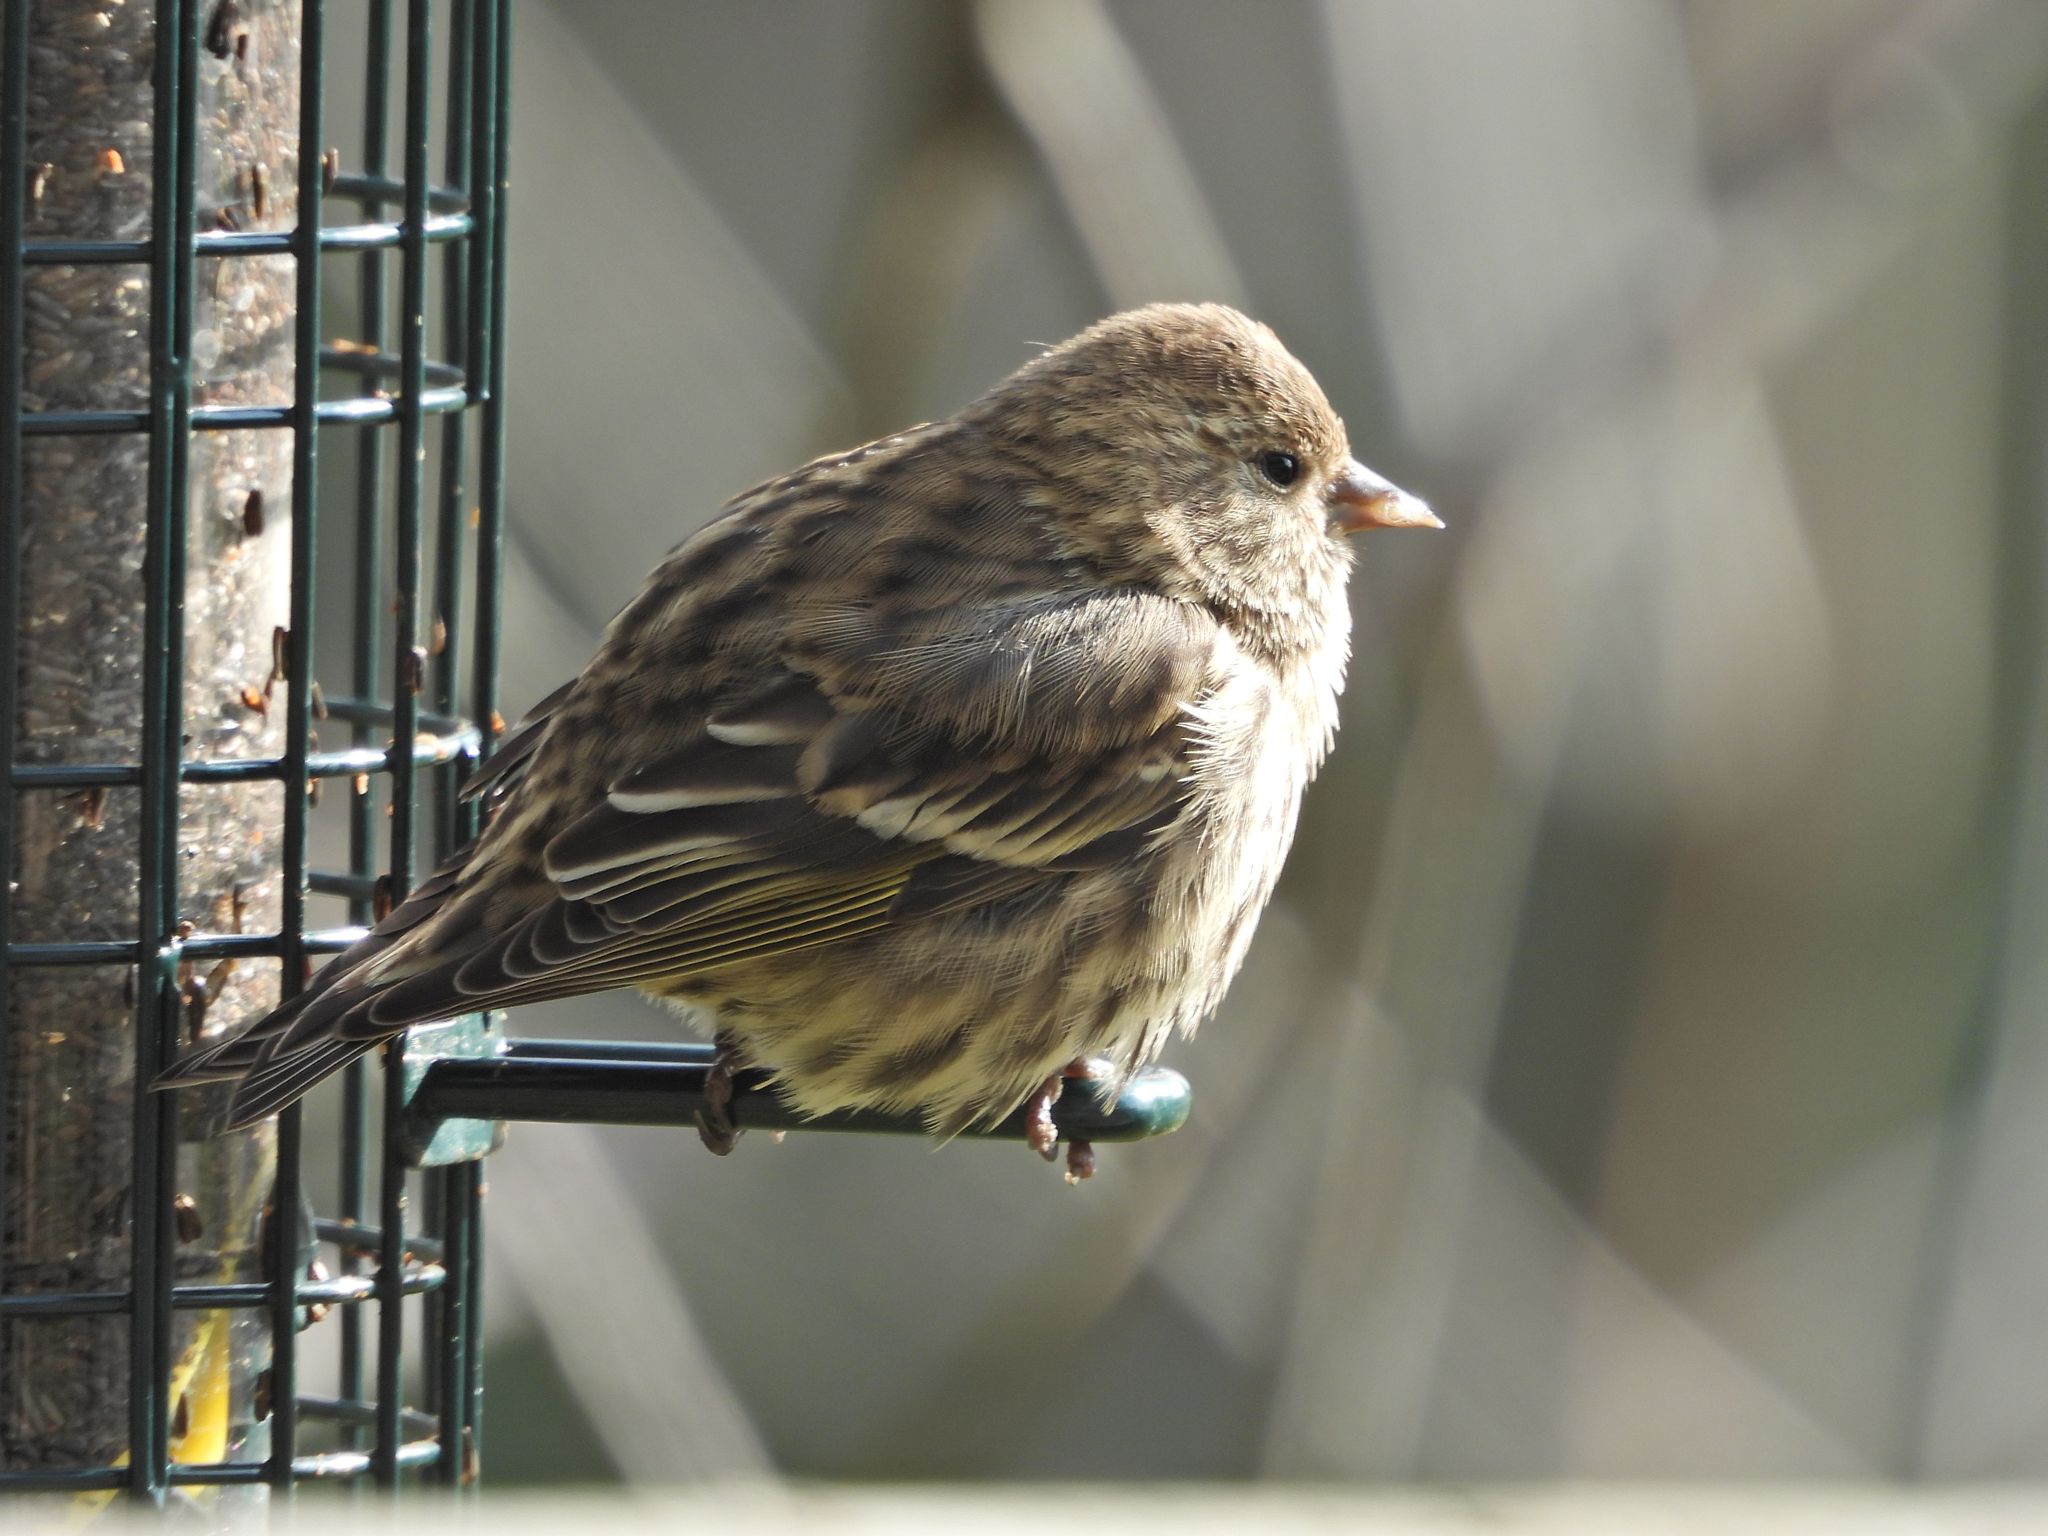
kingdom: Animalia
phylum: Chordata
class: Aves
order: Passeriformes
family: Fringillidae
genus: Spinus
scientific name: Spinus pinus
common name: Pine siskin
